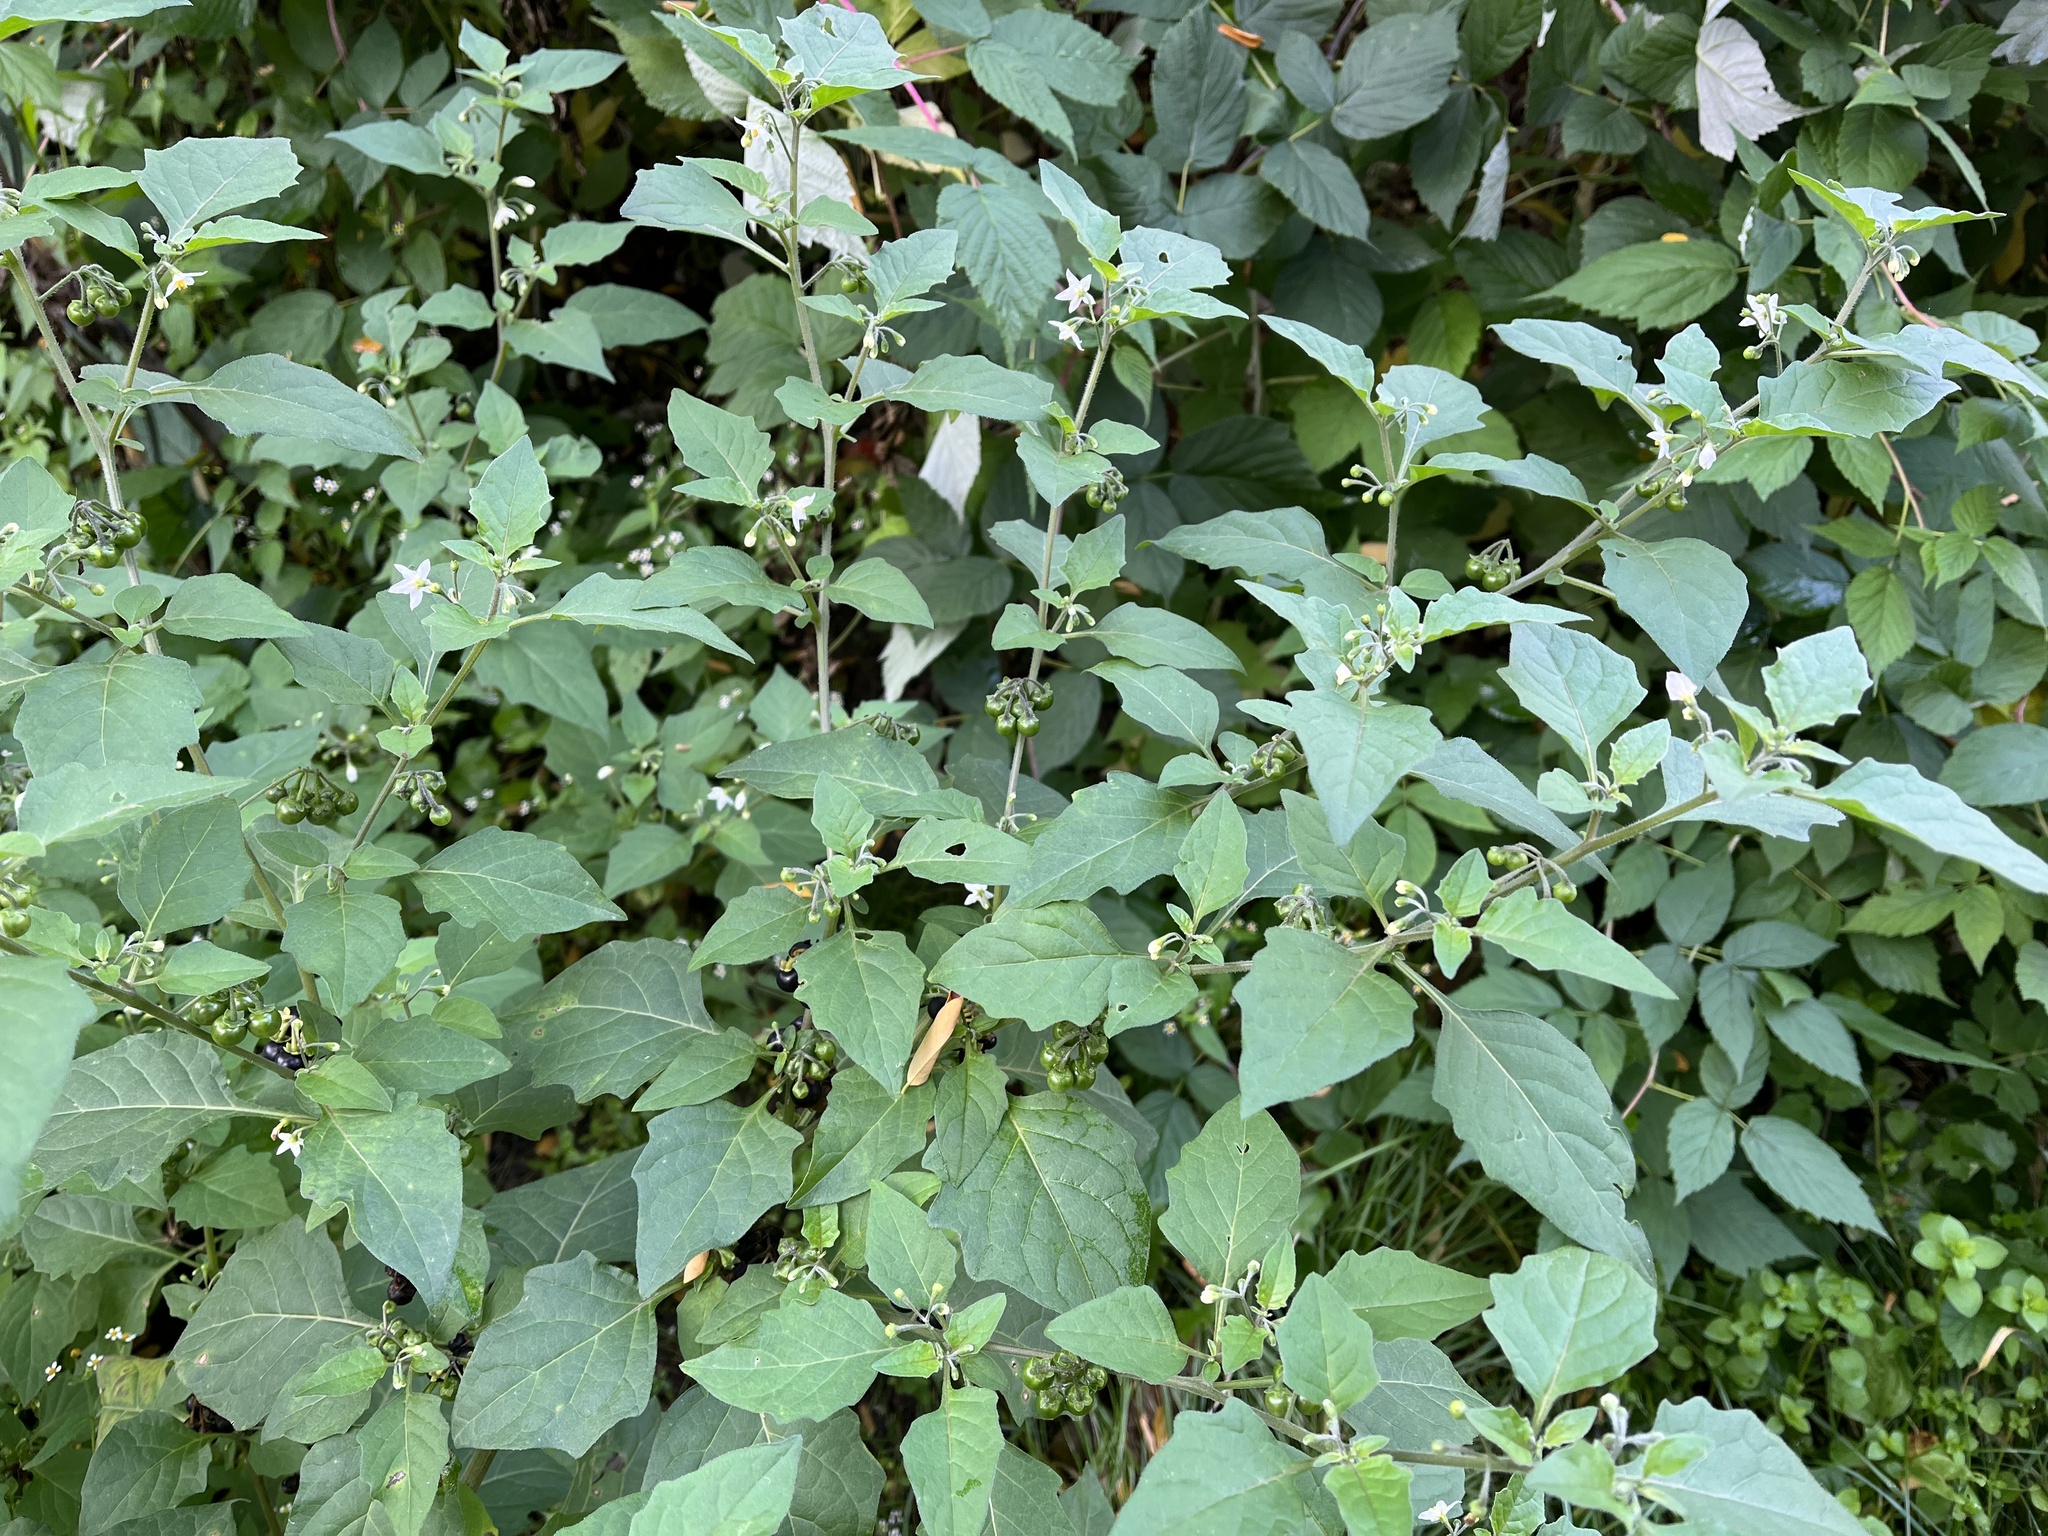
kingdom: Plantae
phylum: Tracheophyta
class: Magnoliopsida
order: Solanales
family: Solanaceae
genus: Solanum
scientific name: Solanum nigrum
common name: Black nightshade
